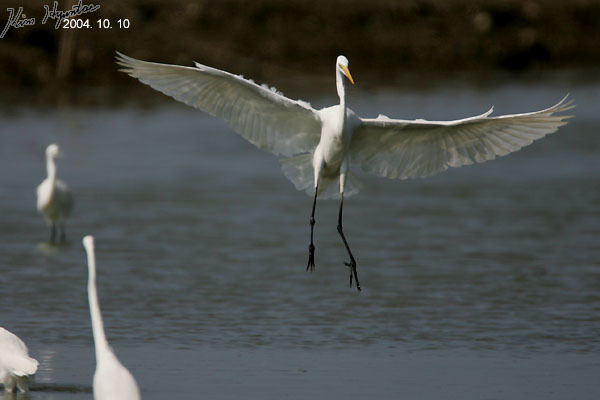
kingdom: Animalia
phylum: Chordata
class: Aves
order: Pelecaniformes
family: Ardeidae
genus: Ardea
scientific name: Ardea alba
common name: Great egret
